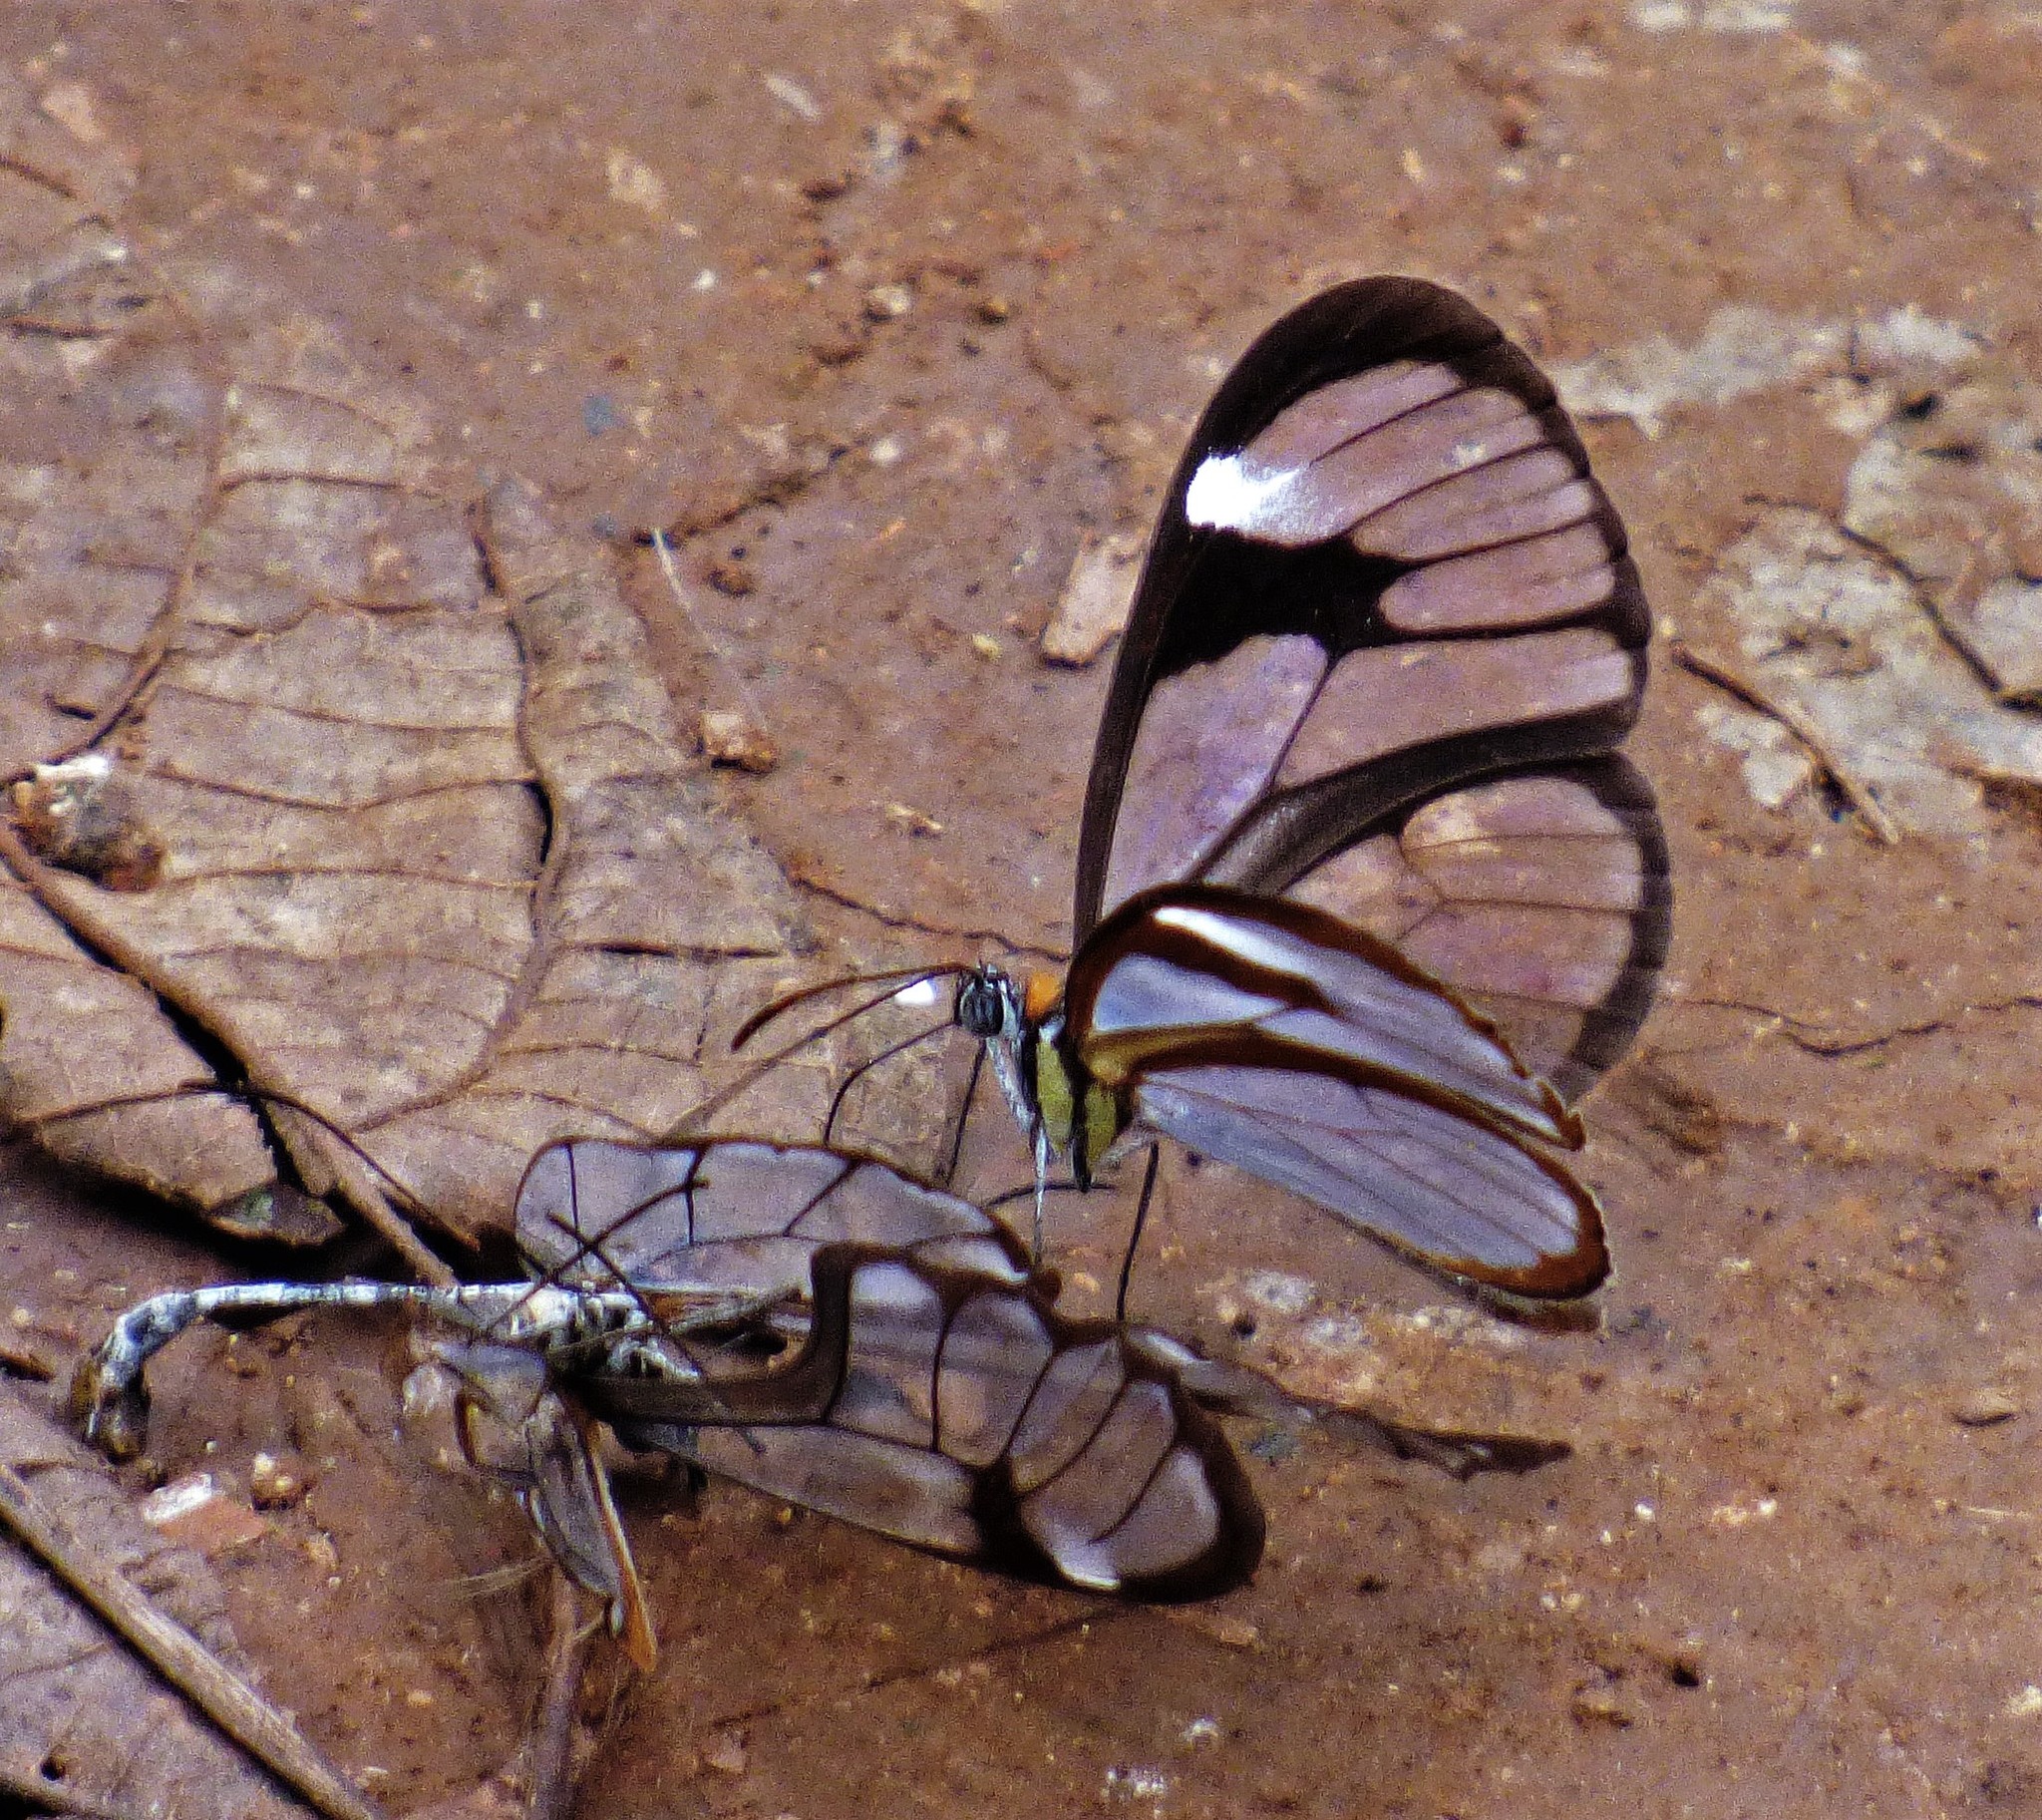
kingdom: Animalia
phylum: Arthropoda
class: Insecta
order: Lepidoptera
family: Nymphalidae
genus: Ithomia
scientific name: Ithomia agnosia
